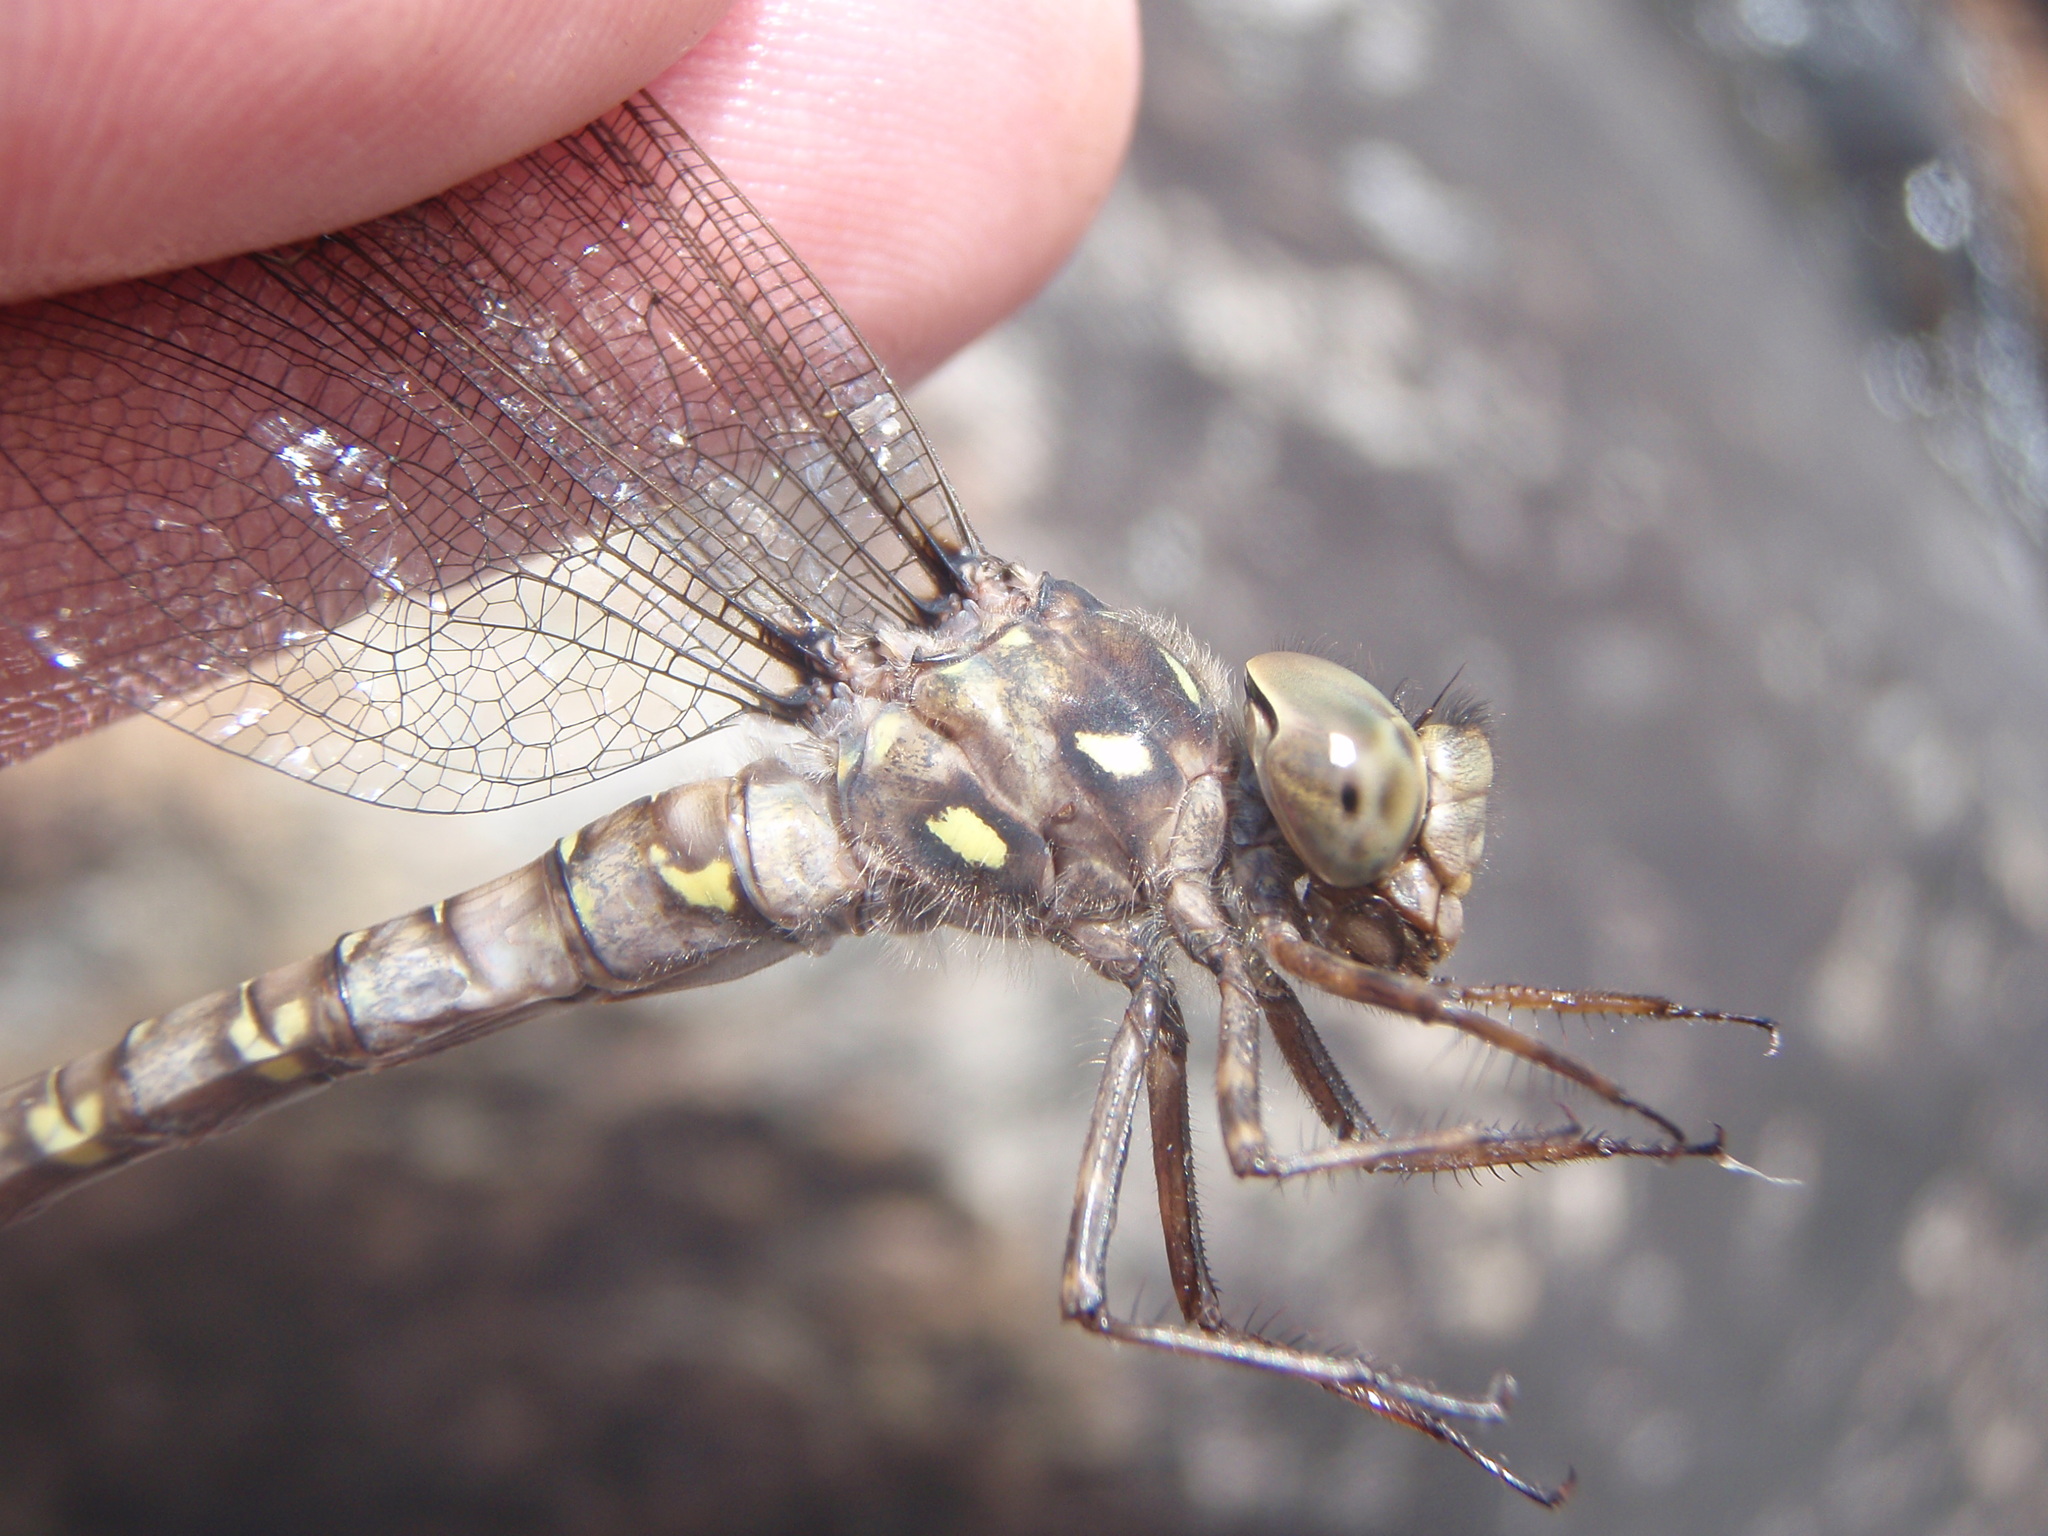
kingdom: Animalia
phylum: Arthropoda
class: Insecta
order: Odonata
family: Aeshnidae
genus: Boyeria
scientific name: Boyeria grafiana
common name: Ocellated darner
